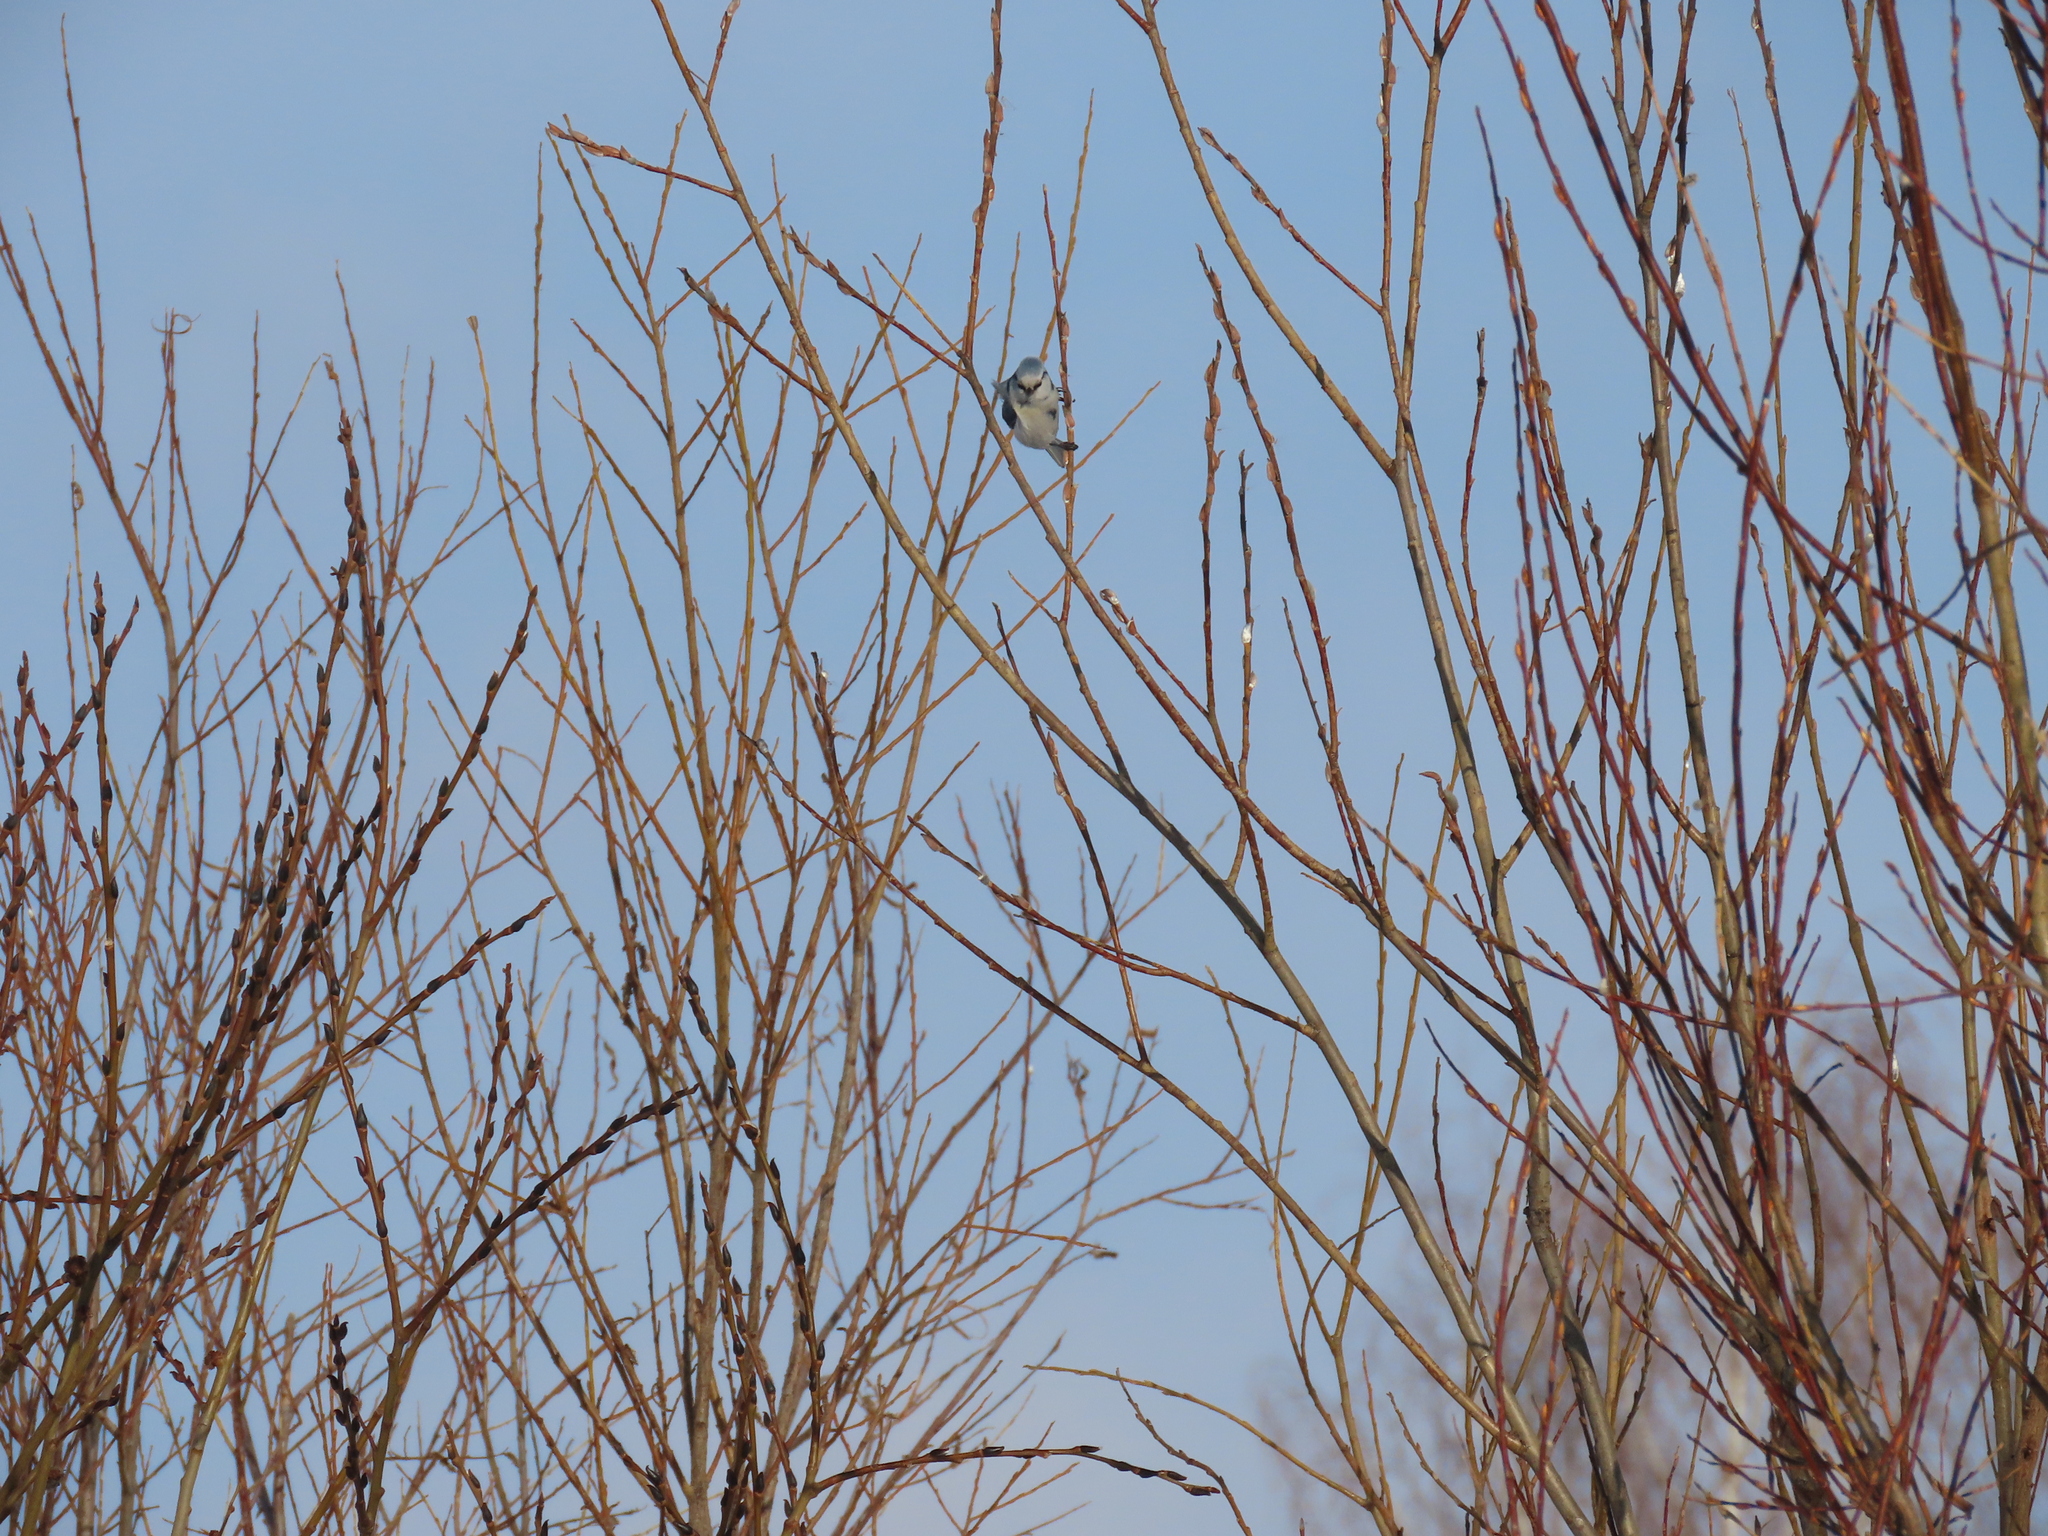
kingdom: Animalia
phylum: Chordata
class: Aves
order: Passeriformes
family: Paridae
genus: Cyanistes
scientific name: Cyanistes
